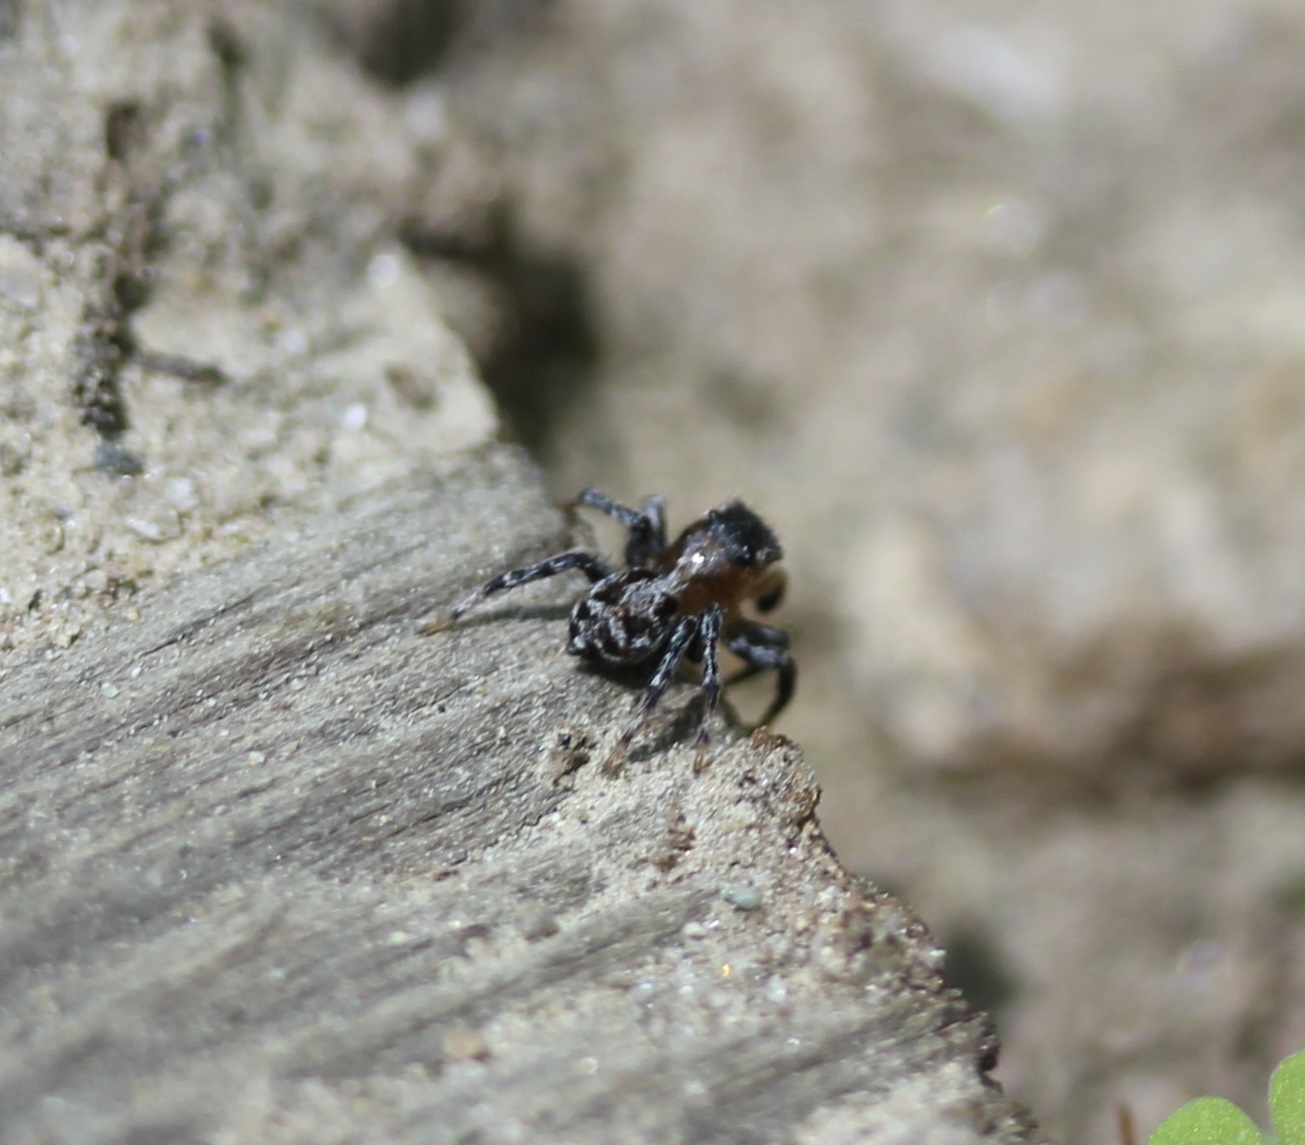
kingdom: Animalia
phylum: Arthropoda
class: Arachnida
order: Araneae
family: Salticidae
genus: Naphrys
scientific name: Naphrys pulex
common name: Flea jumping spider
